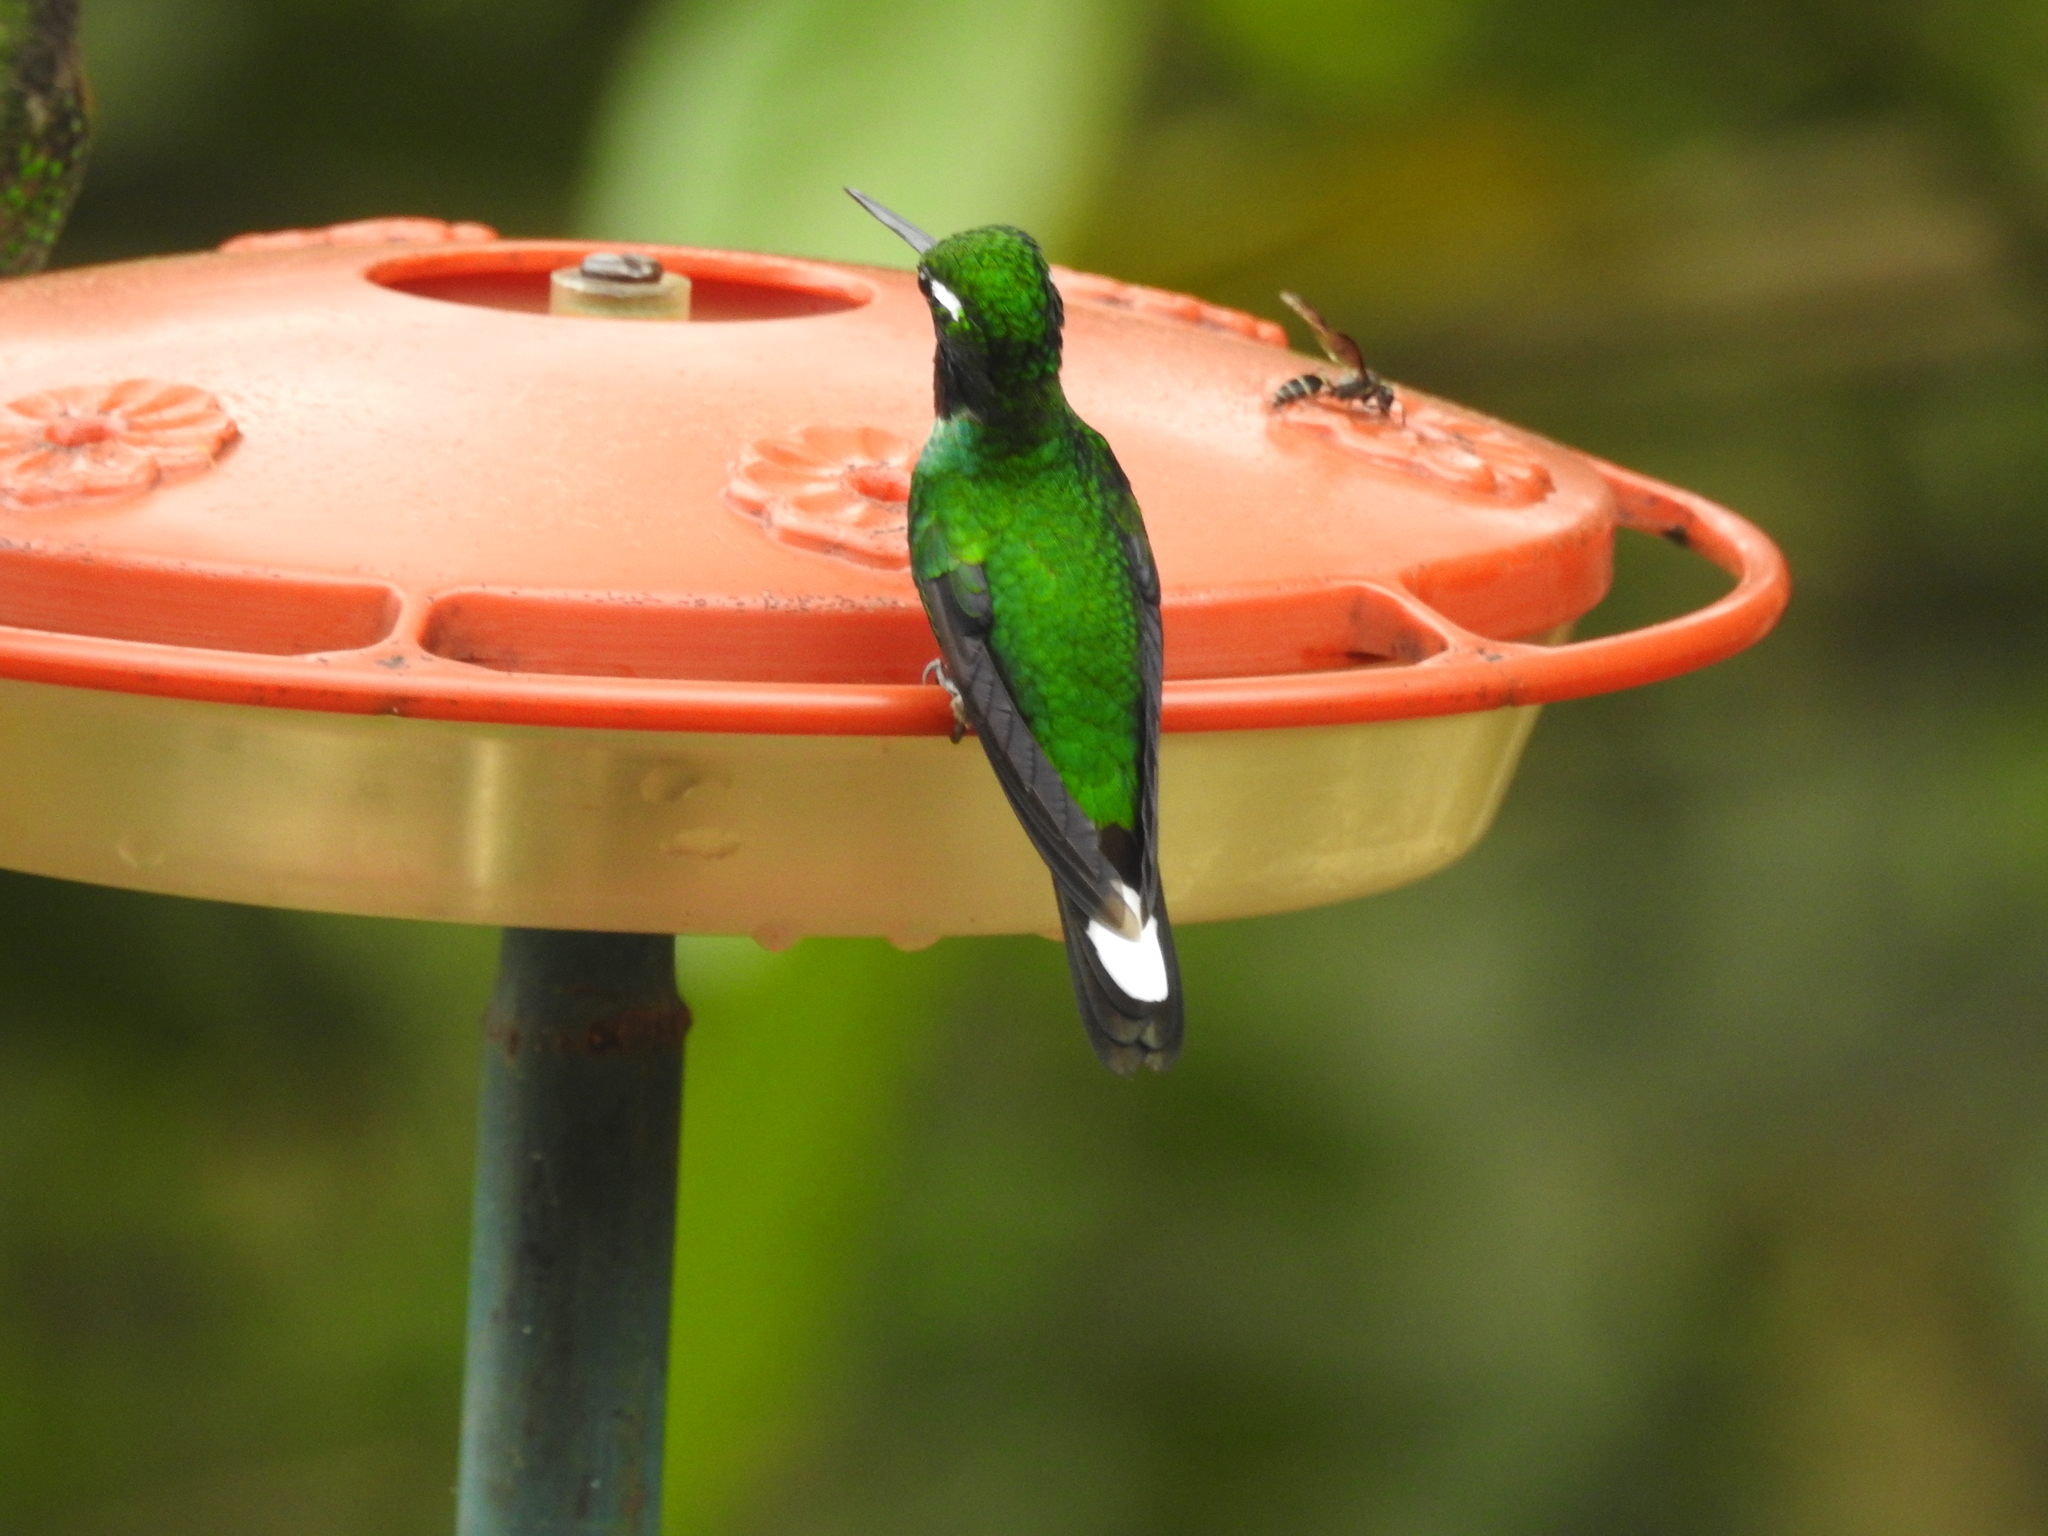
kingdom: Animalia
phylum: Chordata
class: Aves
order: Apodiformes
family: Trochilidae
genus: Urosticte
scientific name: Urosticte benjamini
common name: Purple-bibbed whitetip
